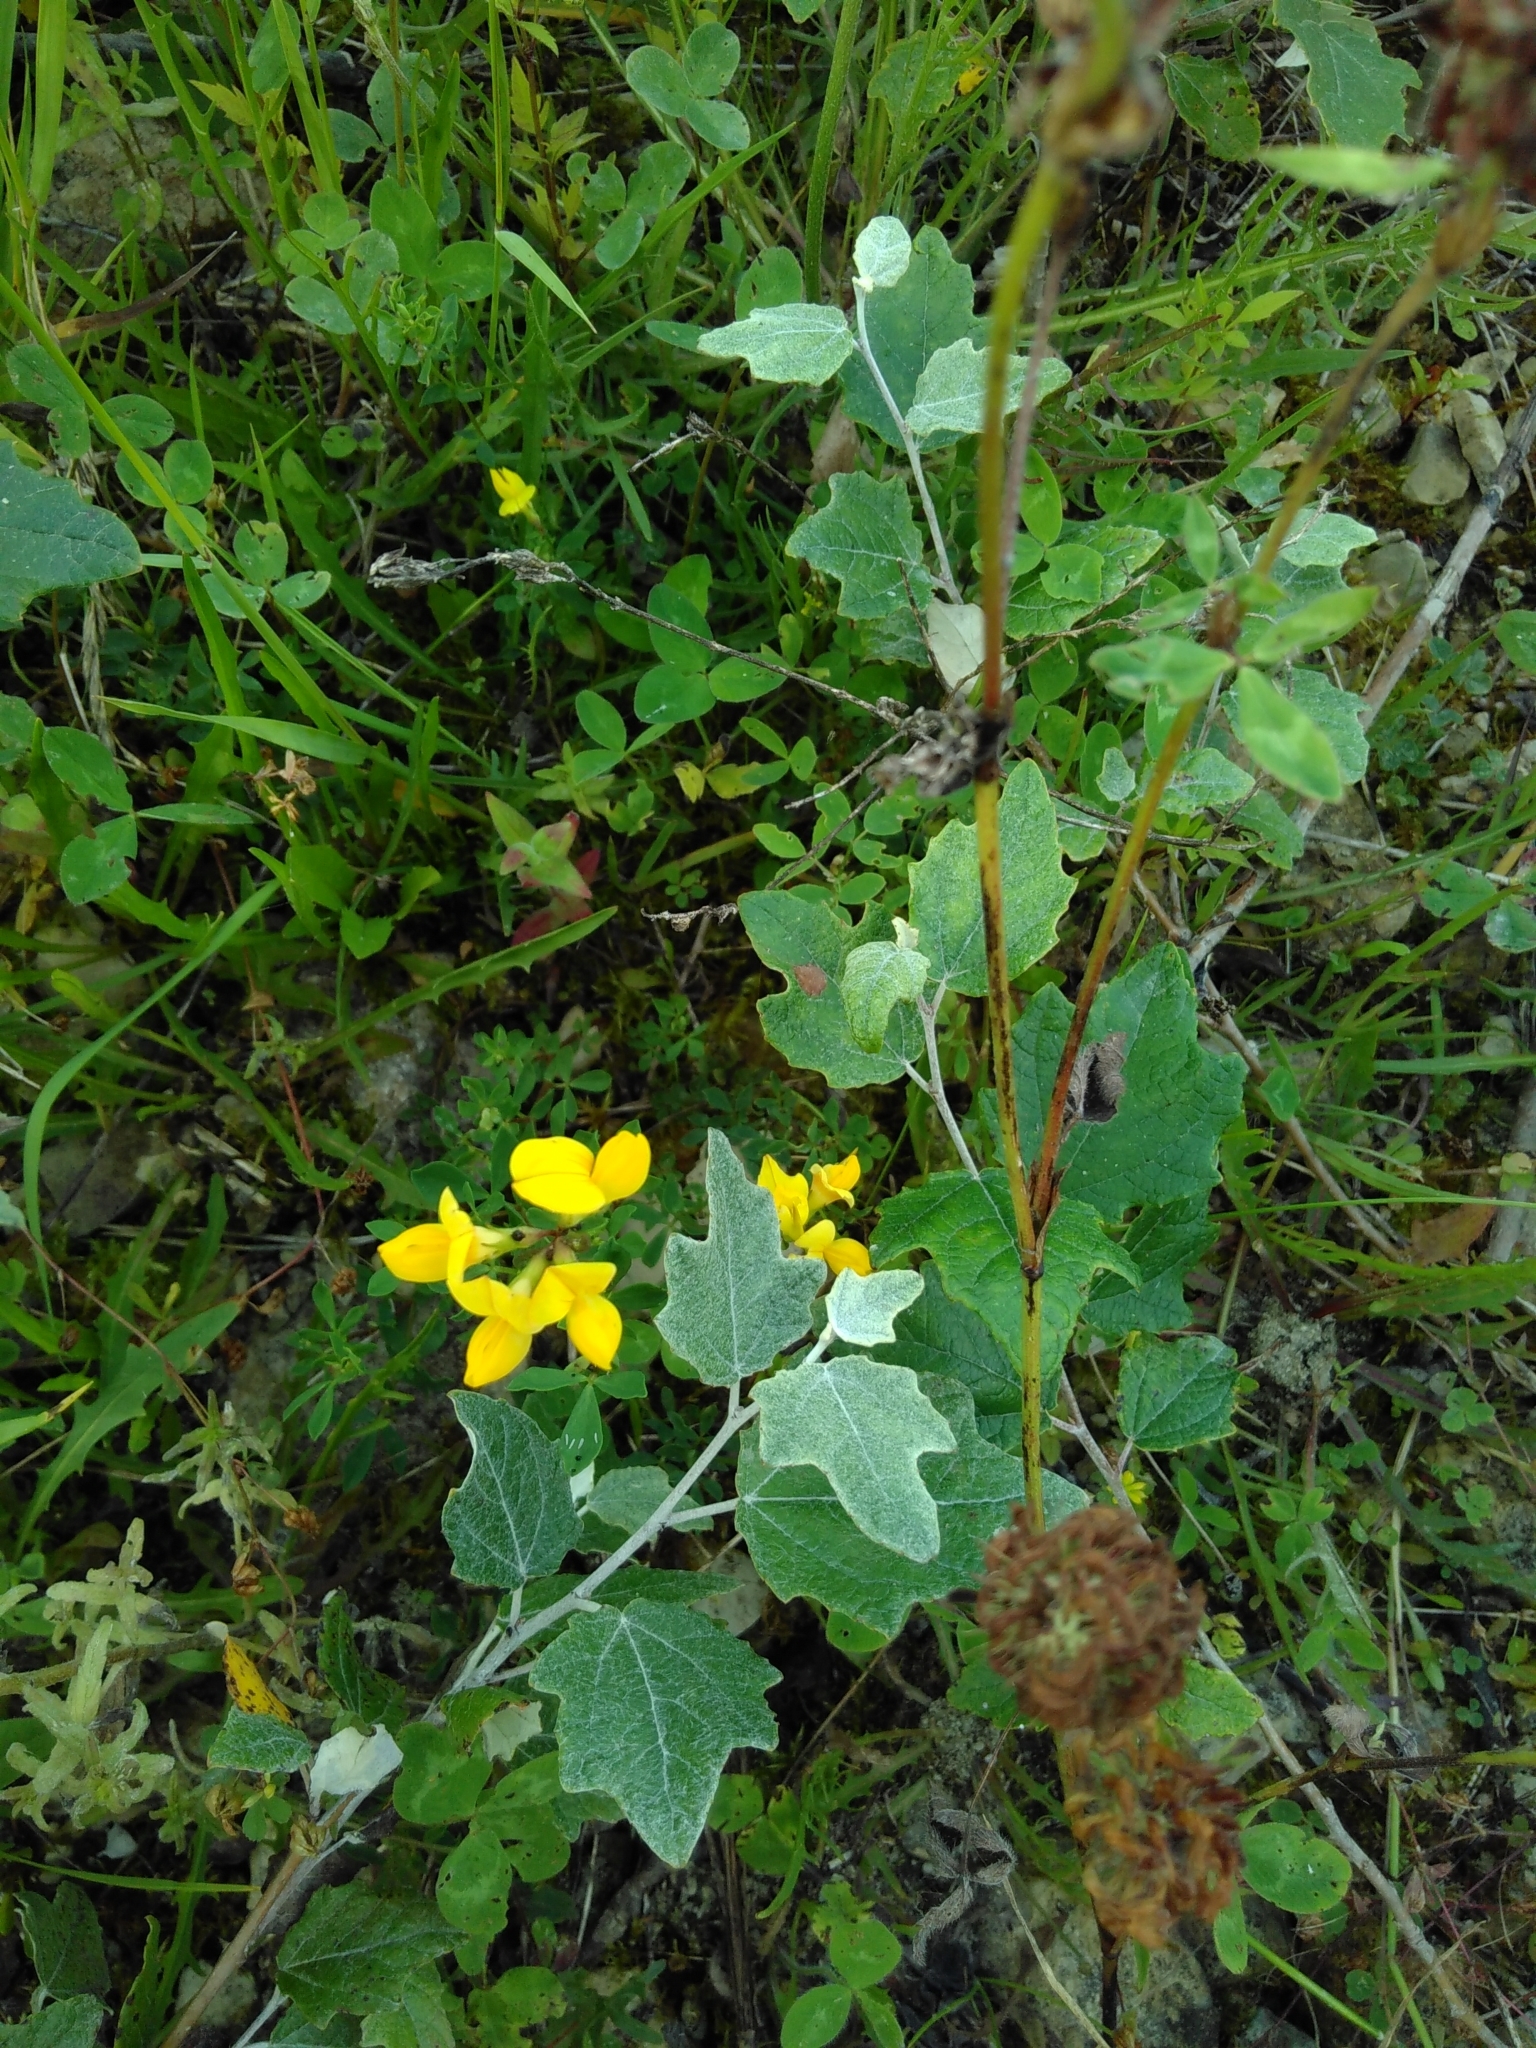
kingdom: Plantae
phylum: Tracheophyta
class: Magnoliopsida
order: Fabales
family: Fabaceae
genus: Lotus
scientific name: Lotus corniculatus
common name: Common bird's-foot-trefoil
